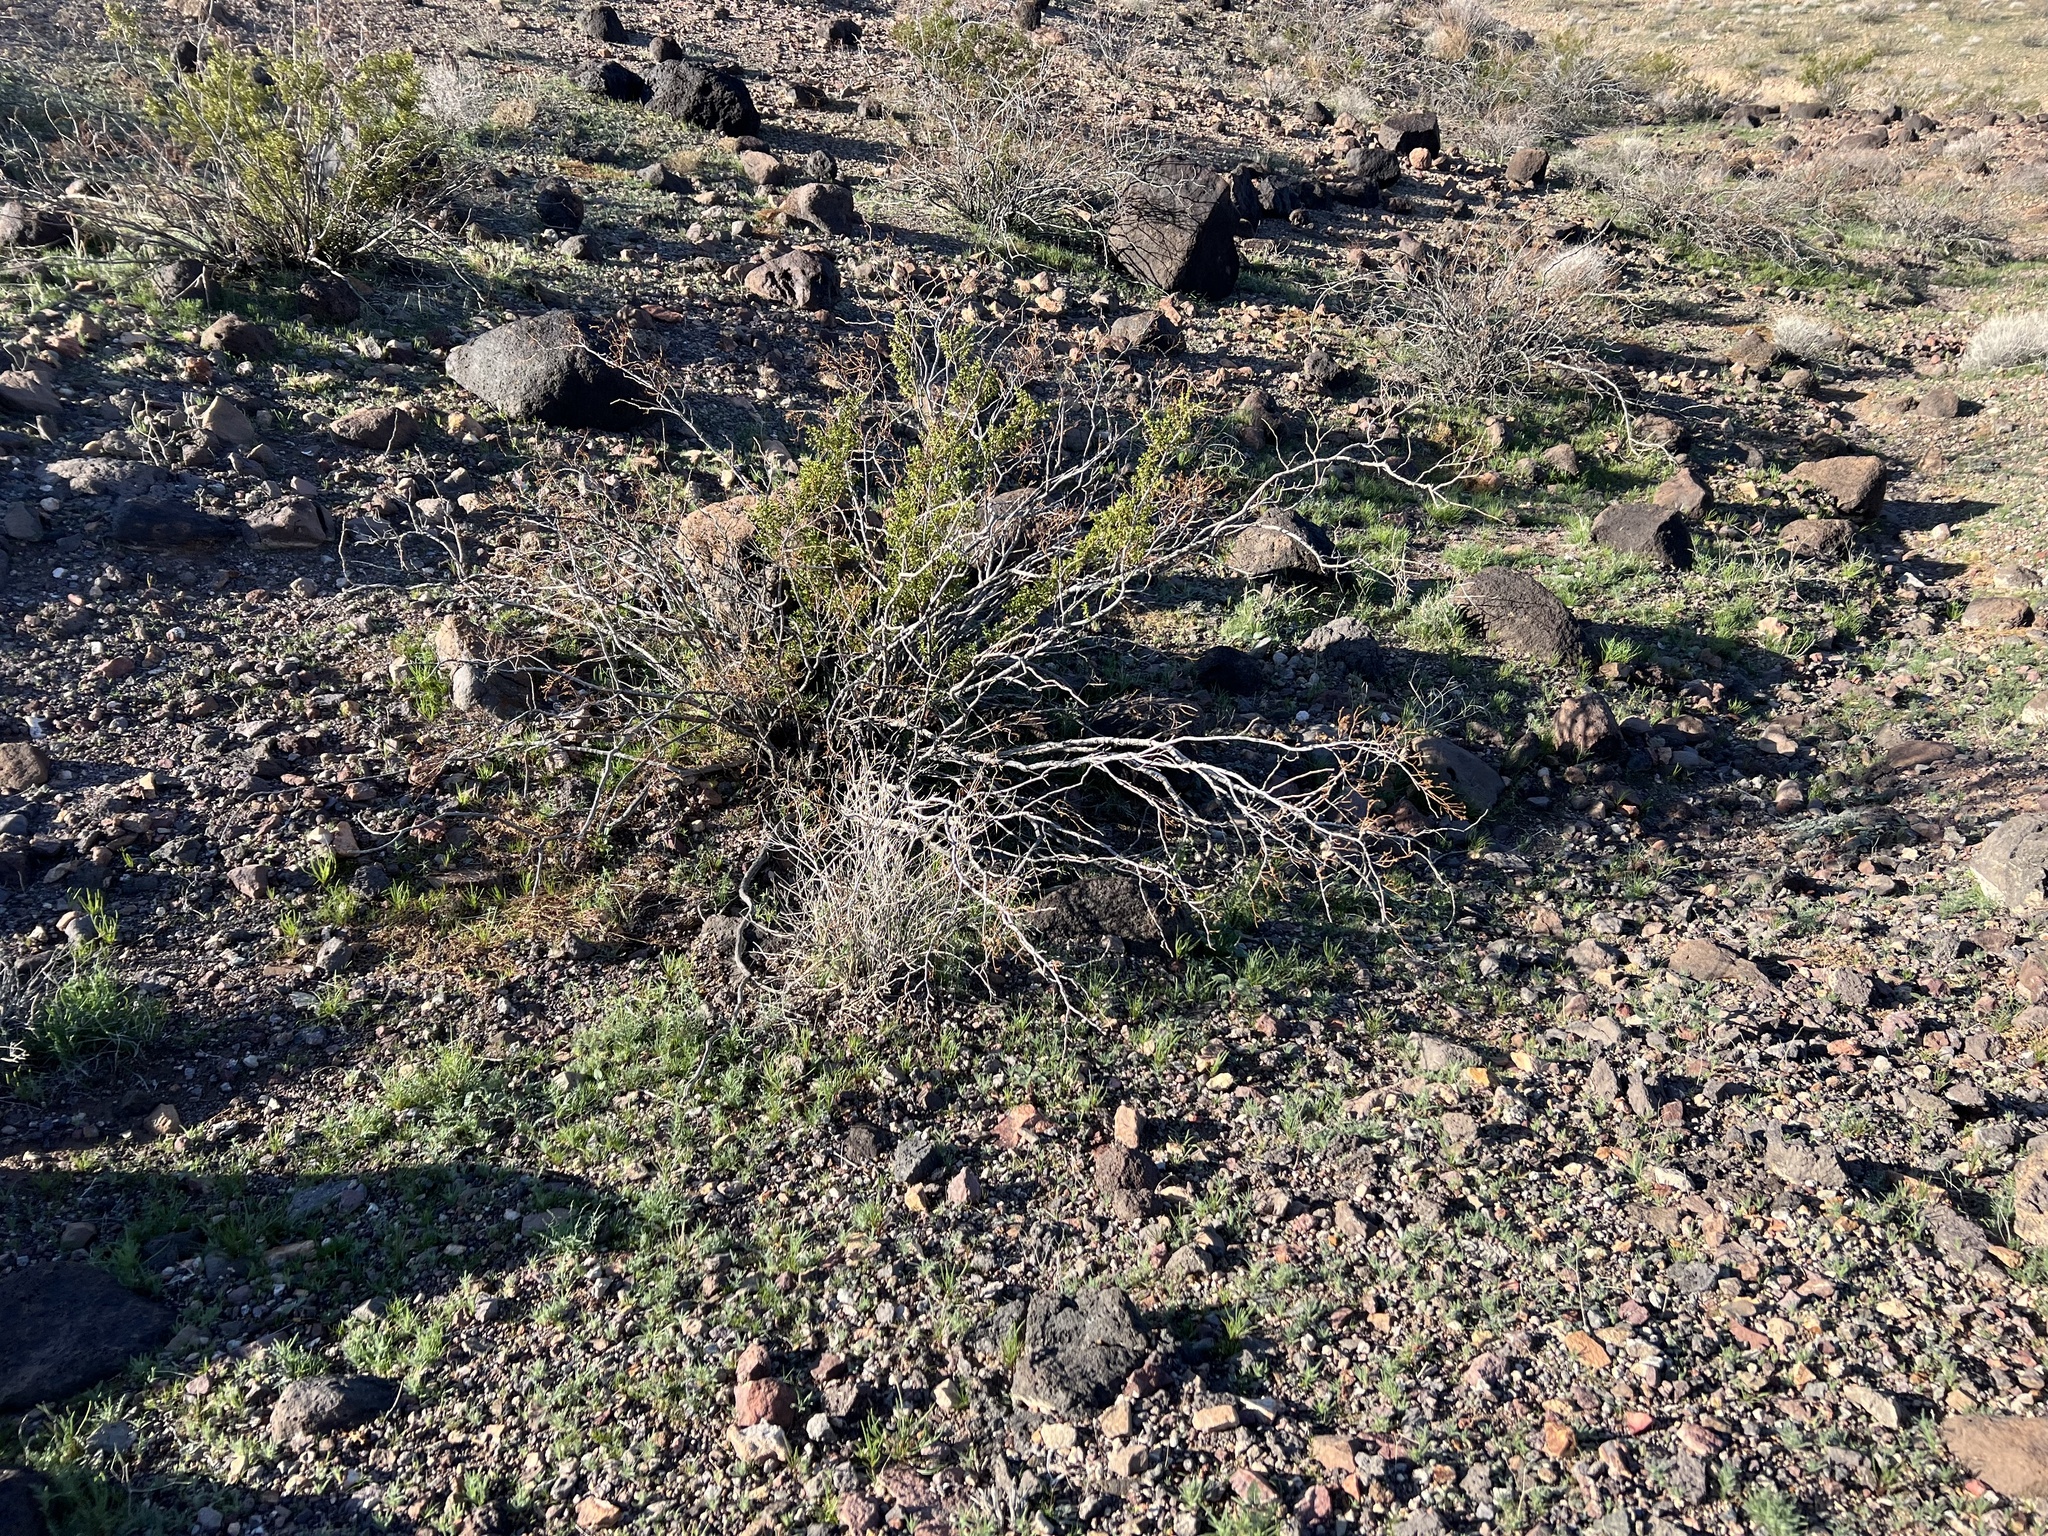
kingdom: Plantae
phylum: Tracheophyta
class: Magnoliopsida
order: Zygophyllales
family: Zygophyllaceae
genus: Larrea
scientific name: Larrea tridentata
